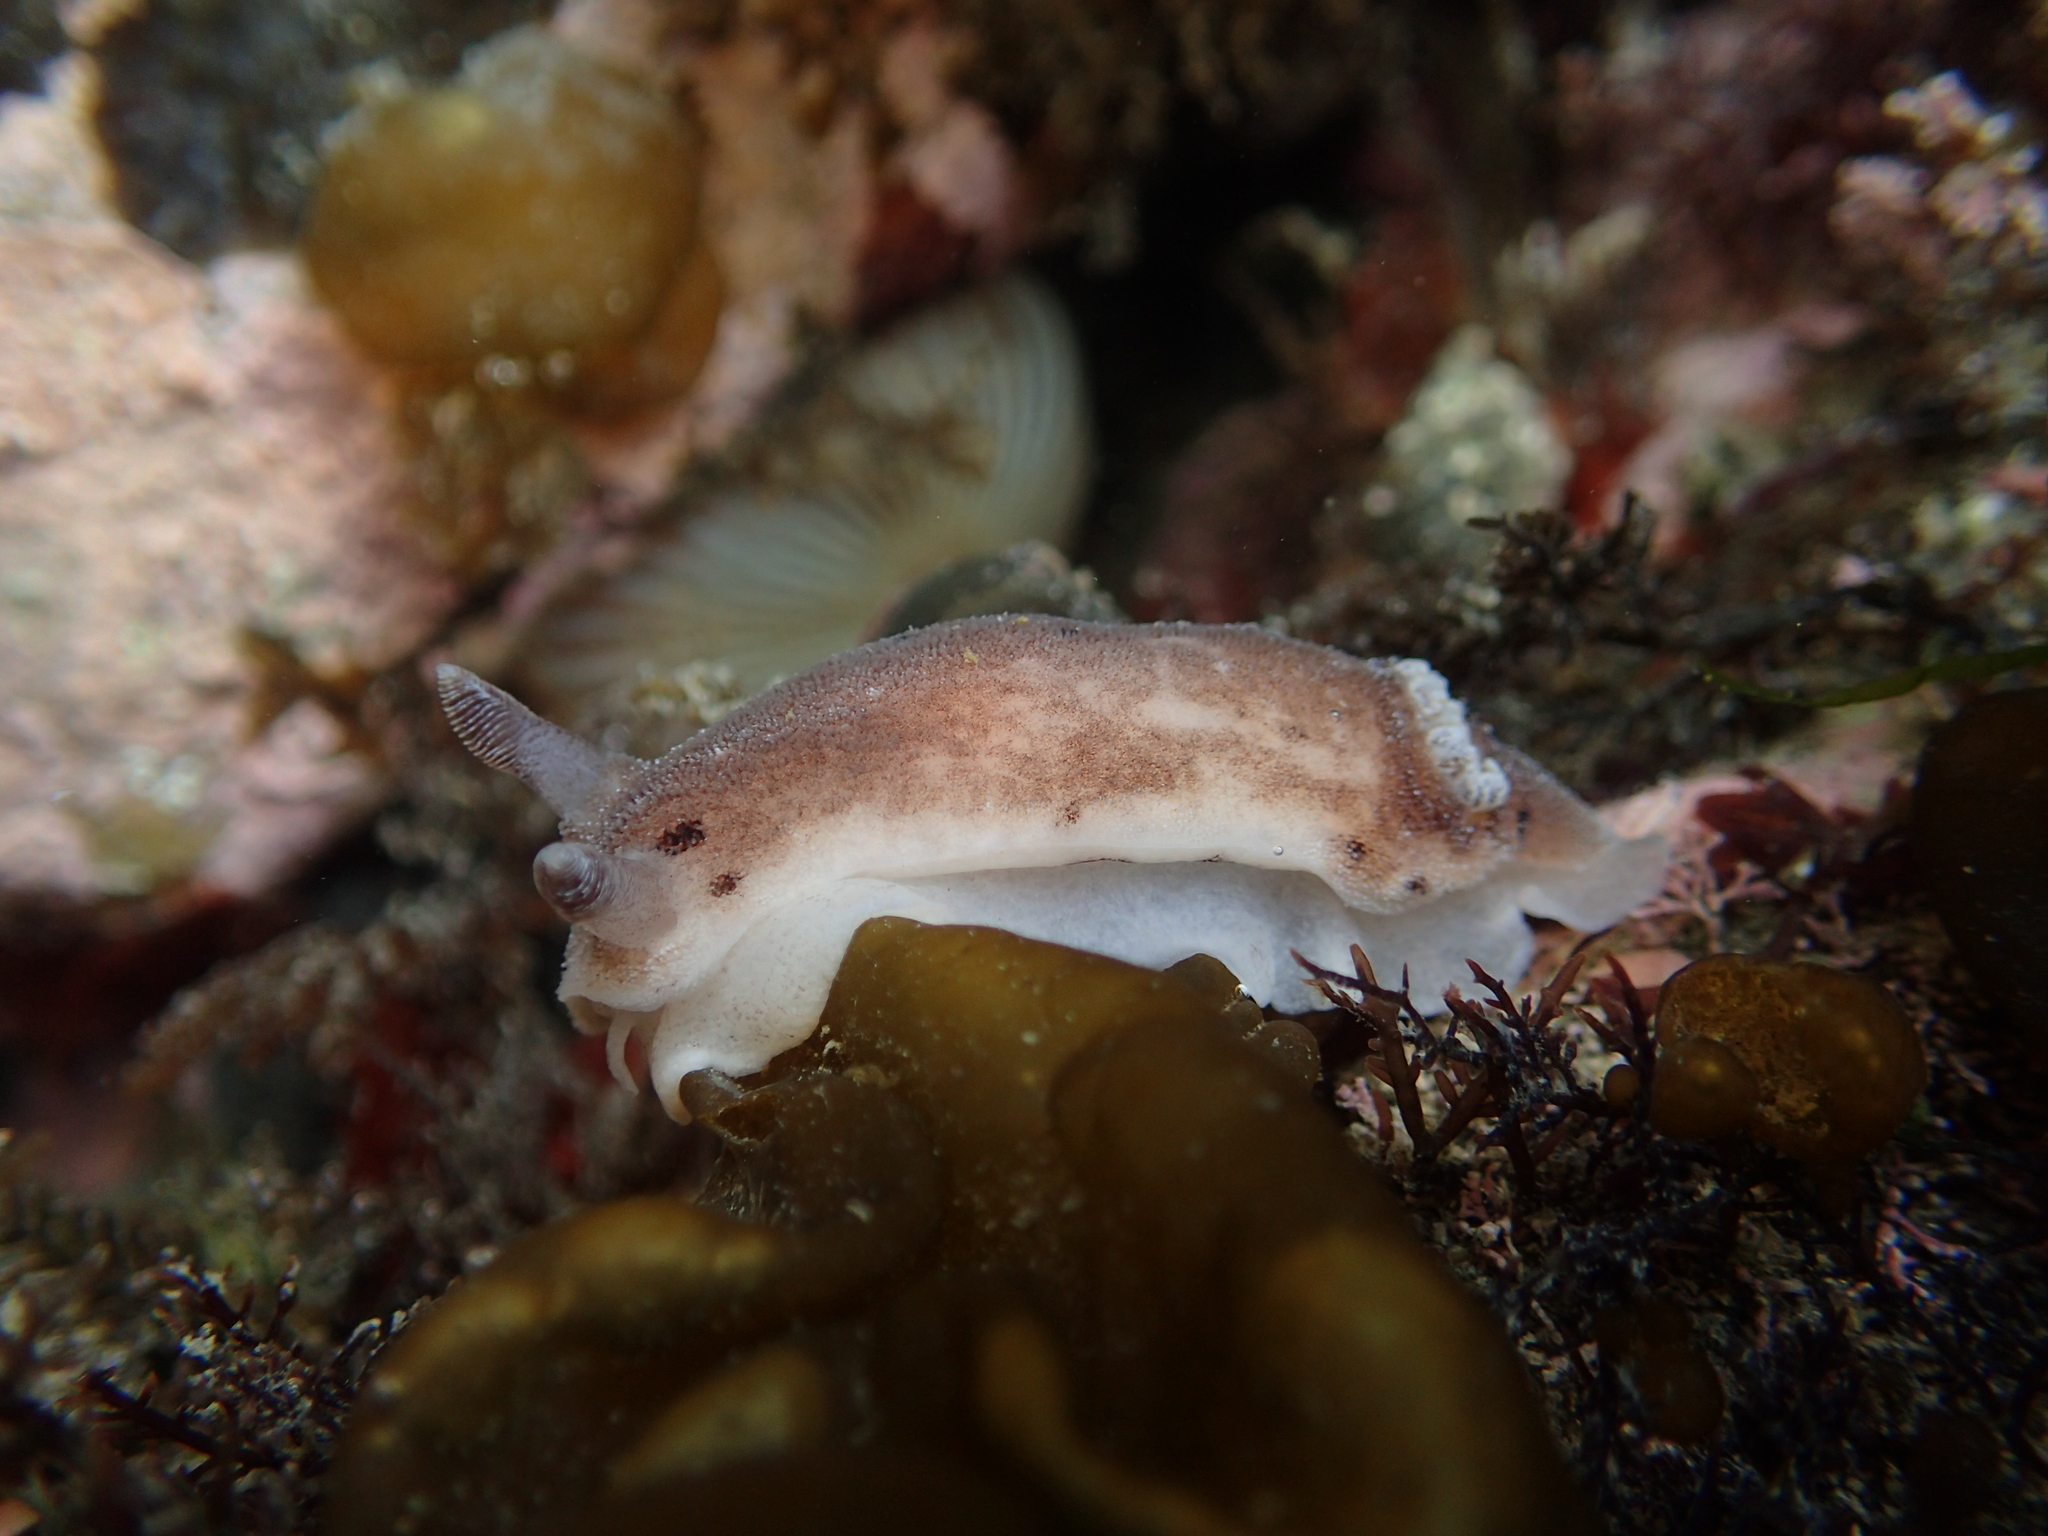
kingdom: Animalia
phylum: Mollusca
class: Gastropoda
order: Nudibranchia
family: Discodorididae
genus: Alloiodoris
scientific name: Alloiodoris lanuginata
